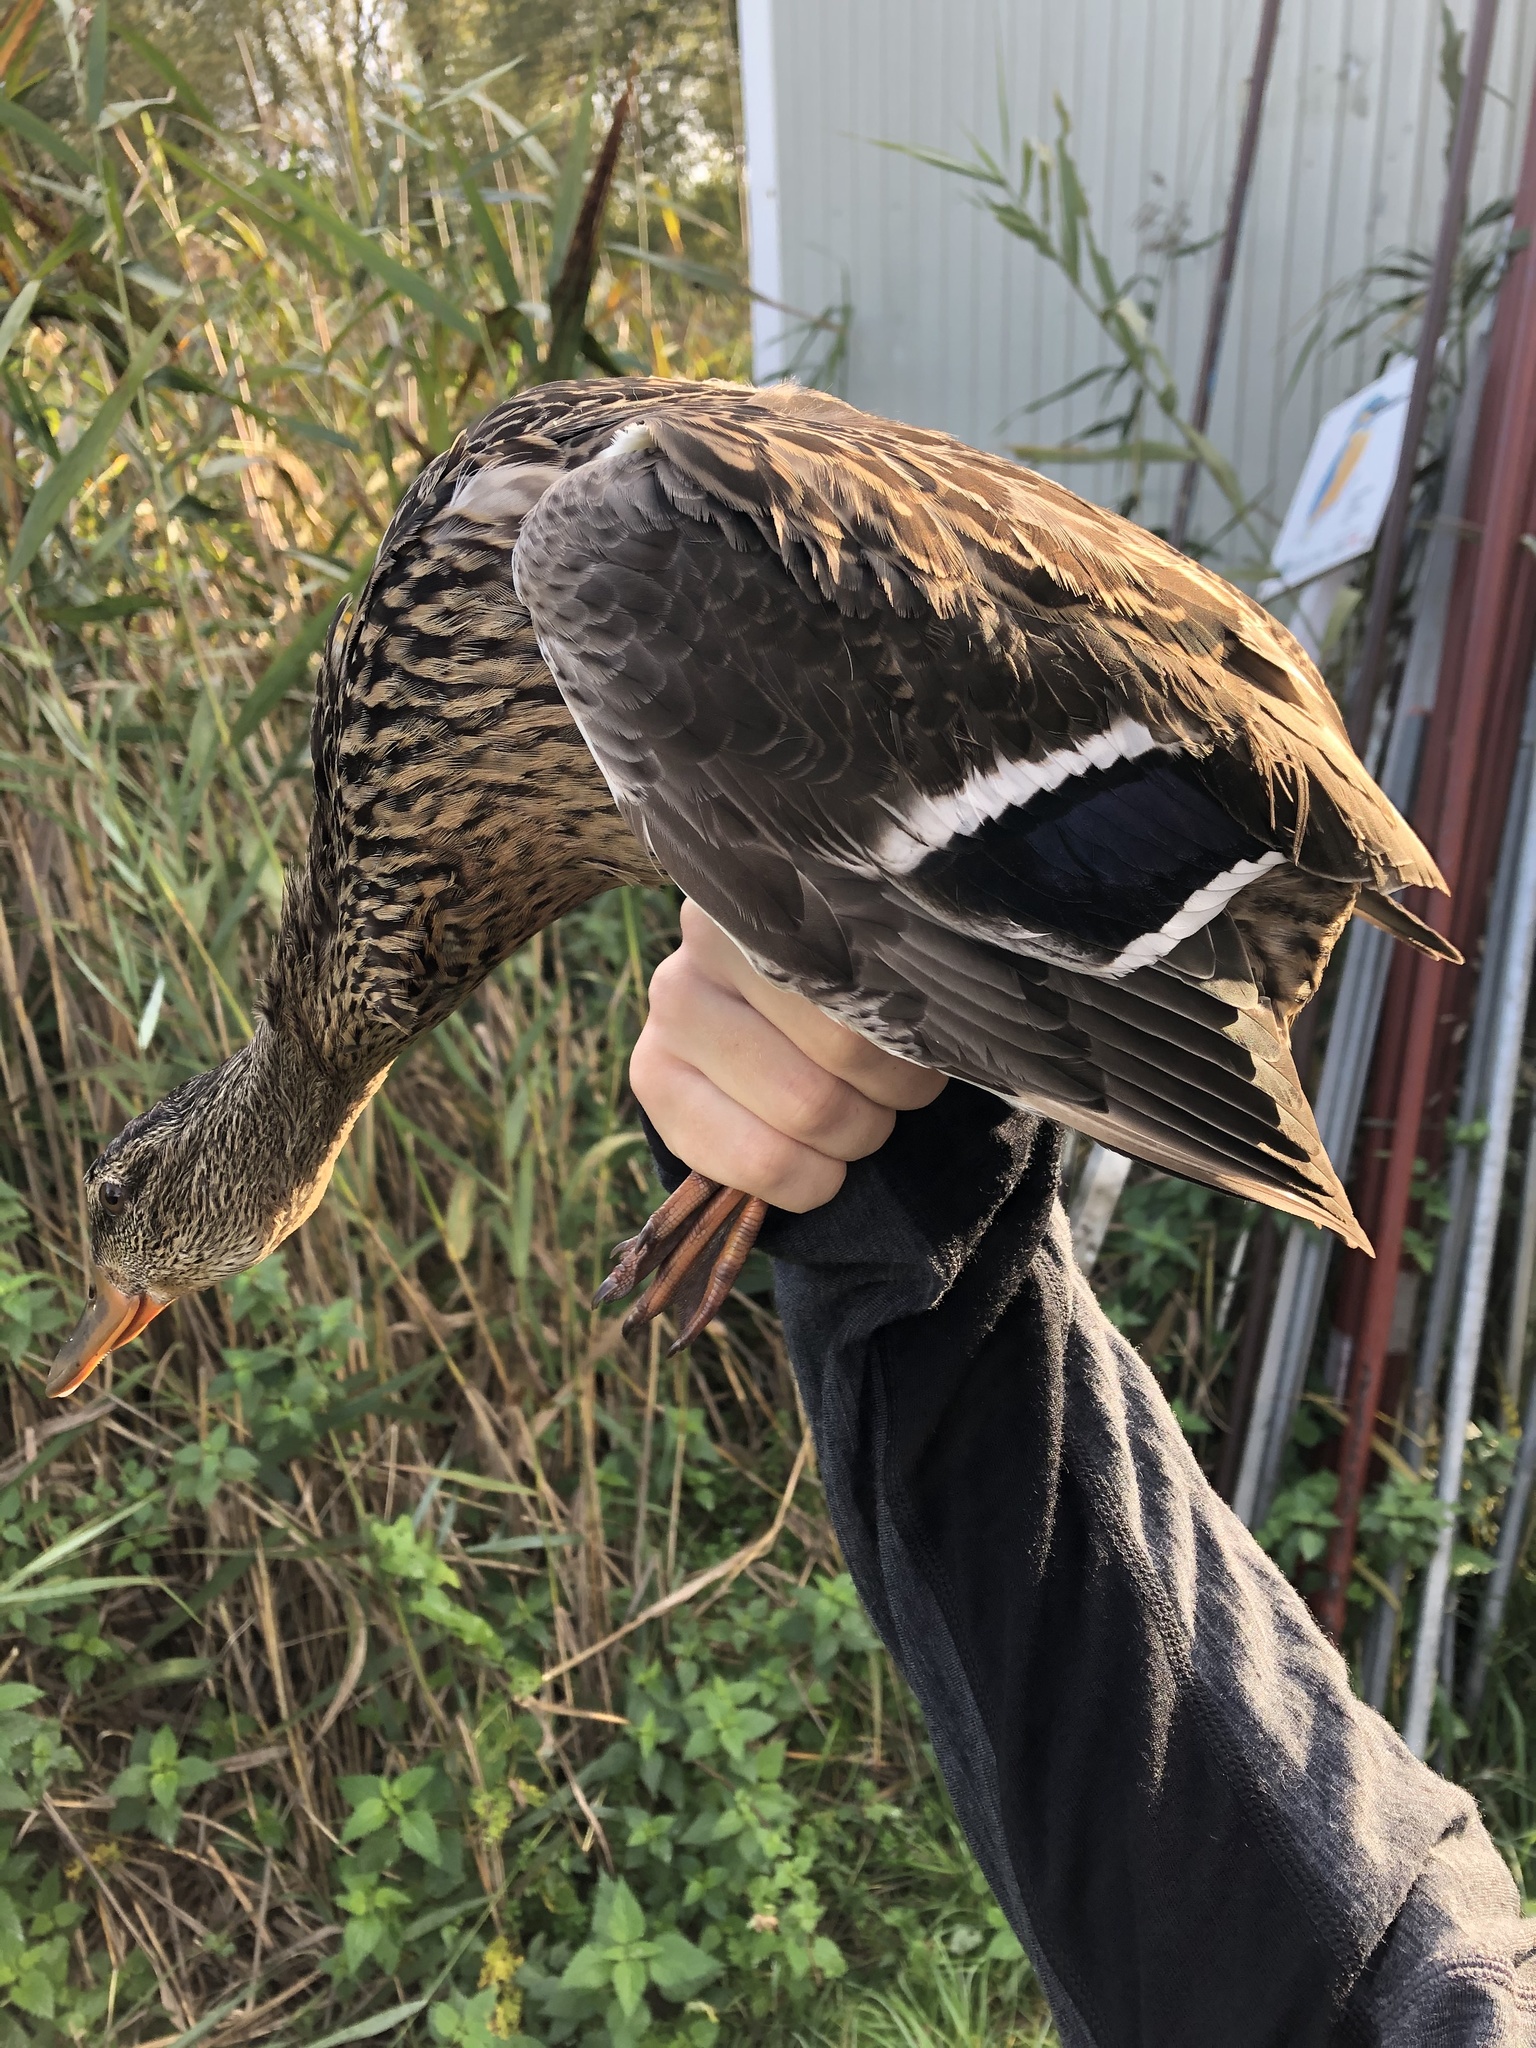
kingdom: Animalia
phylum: Chordata
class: Aves
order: Anseriformes
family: Anatidae
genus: Anas
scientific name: Anas platyrhynchos
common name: Mallard
